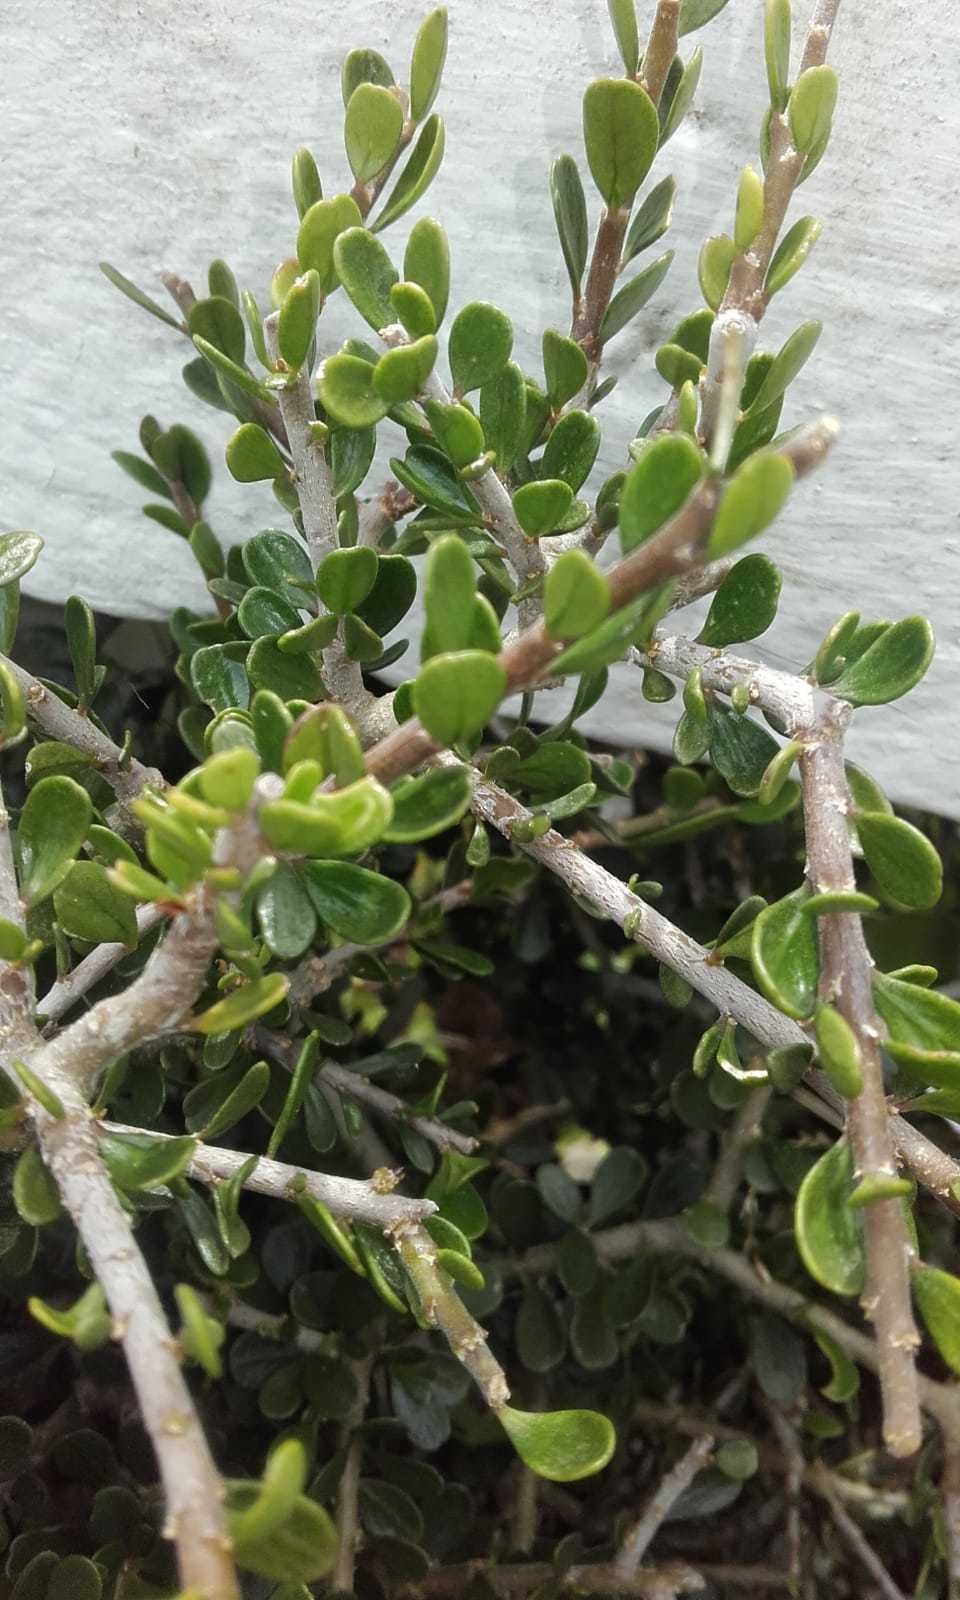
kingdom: Plantae
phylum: Tracheophyta
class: Magnoliopsida
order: Malpighiales
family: Violaceae
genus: Melicytus
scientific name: Melicytus crassifolius
